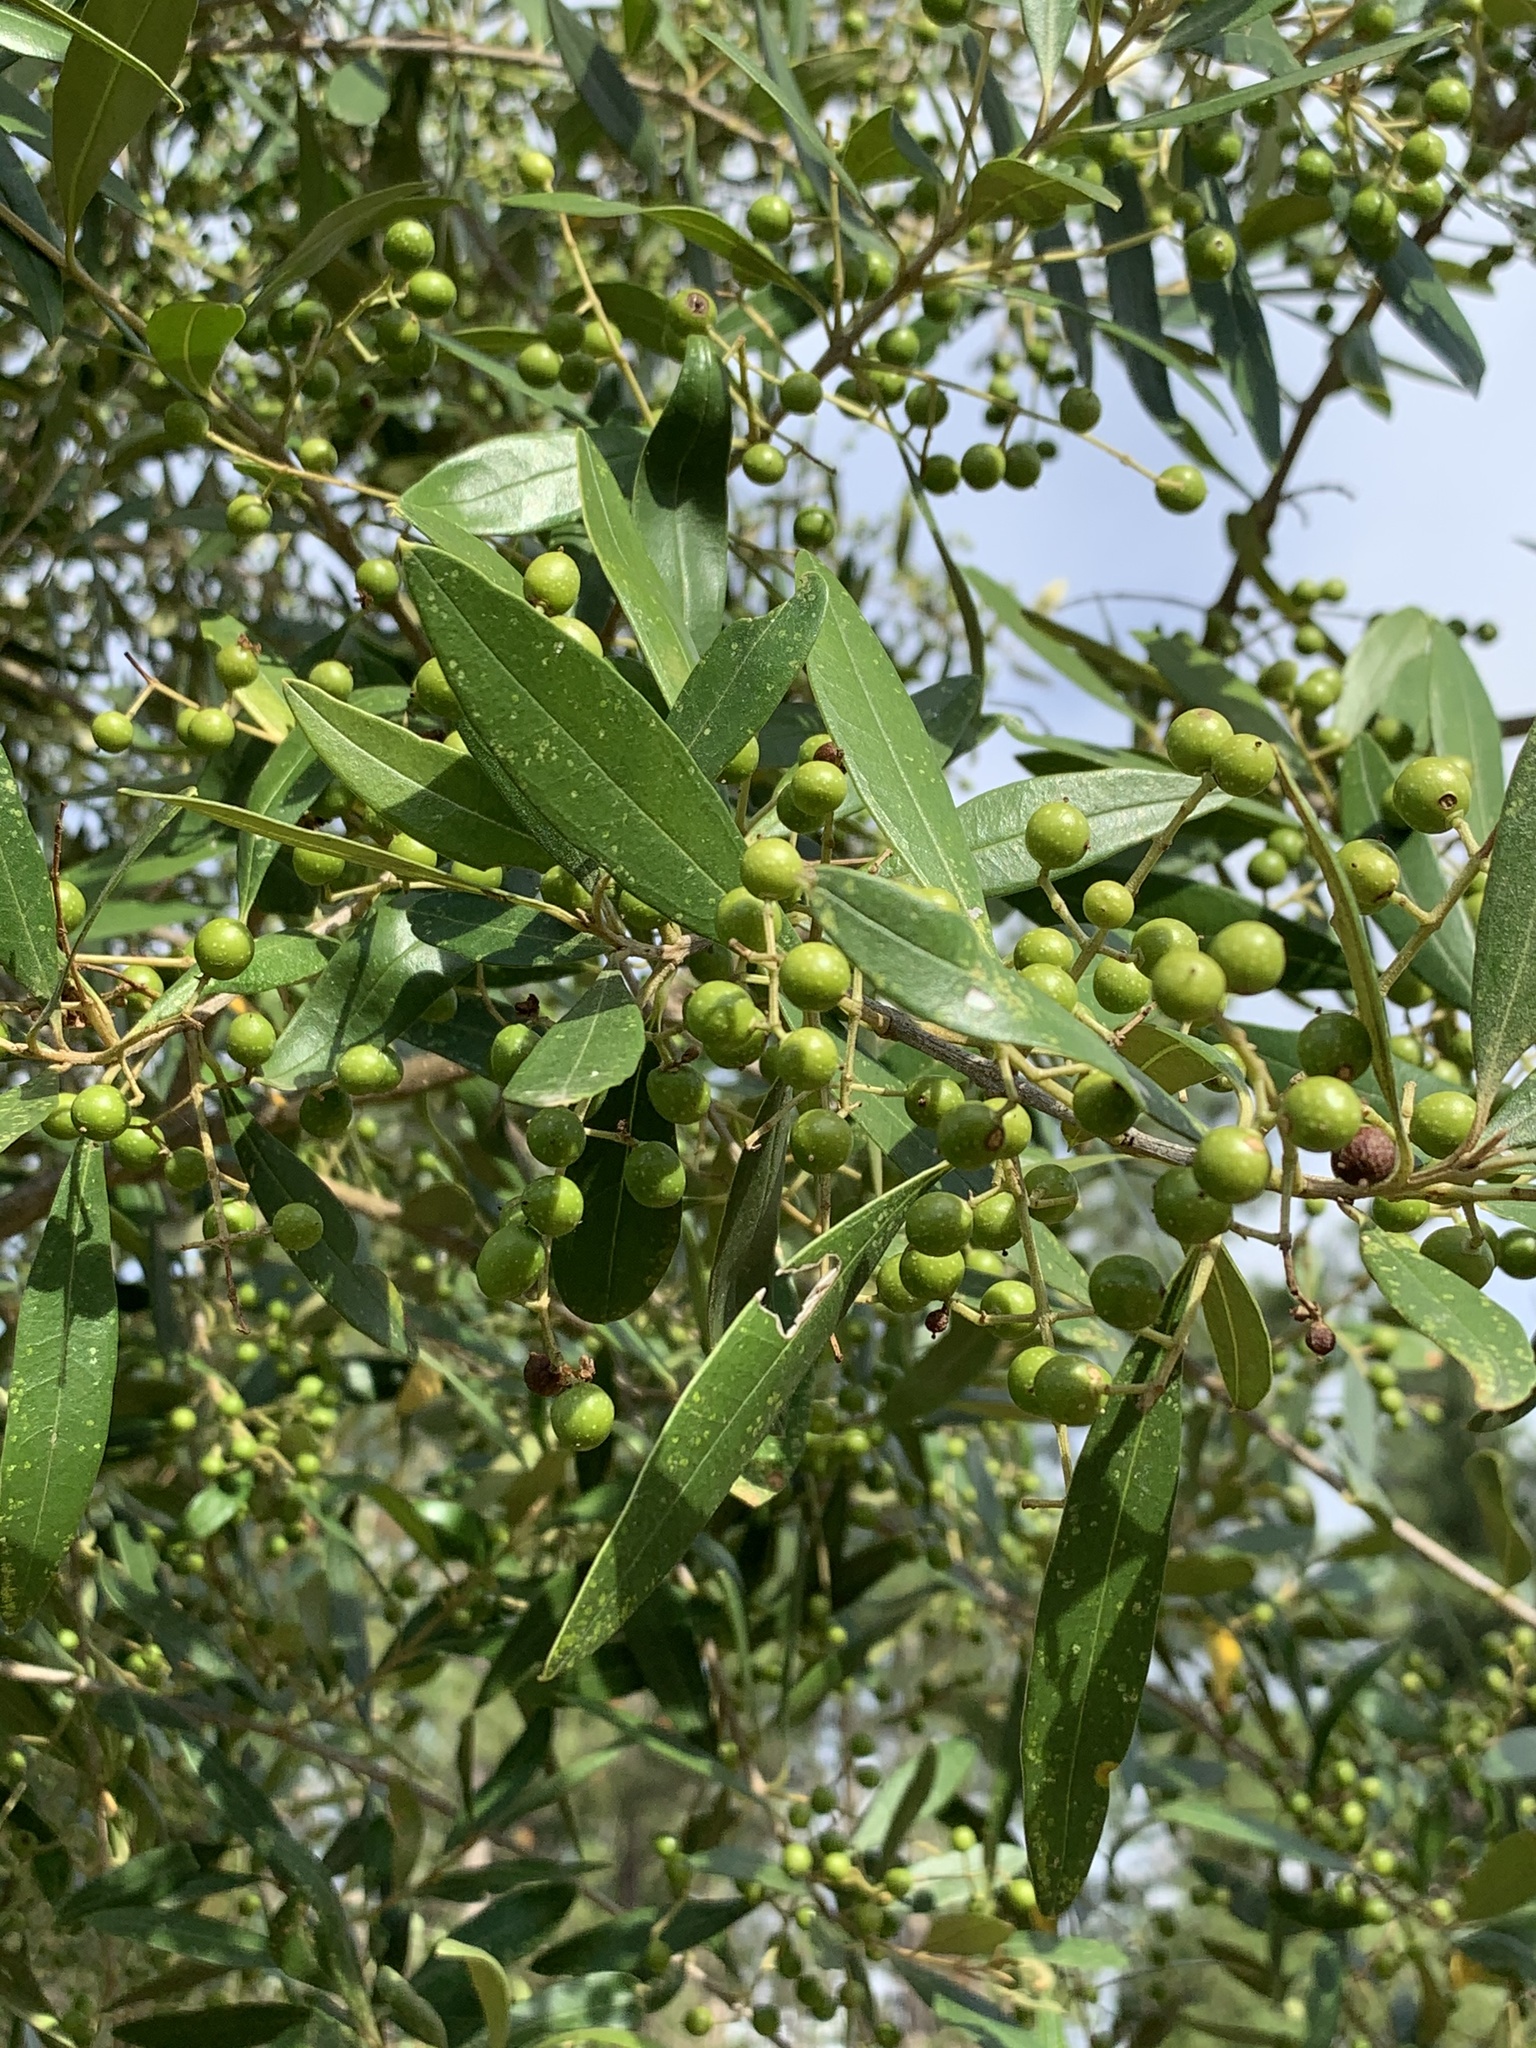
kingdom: Plantae
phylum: Tracheophyta
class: Magnoliopsida
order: Lamiales
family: Oleaceae
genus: Olea
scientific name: Olea europaea
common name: Olive
